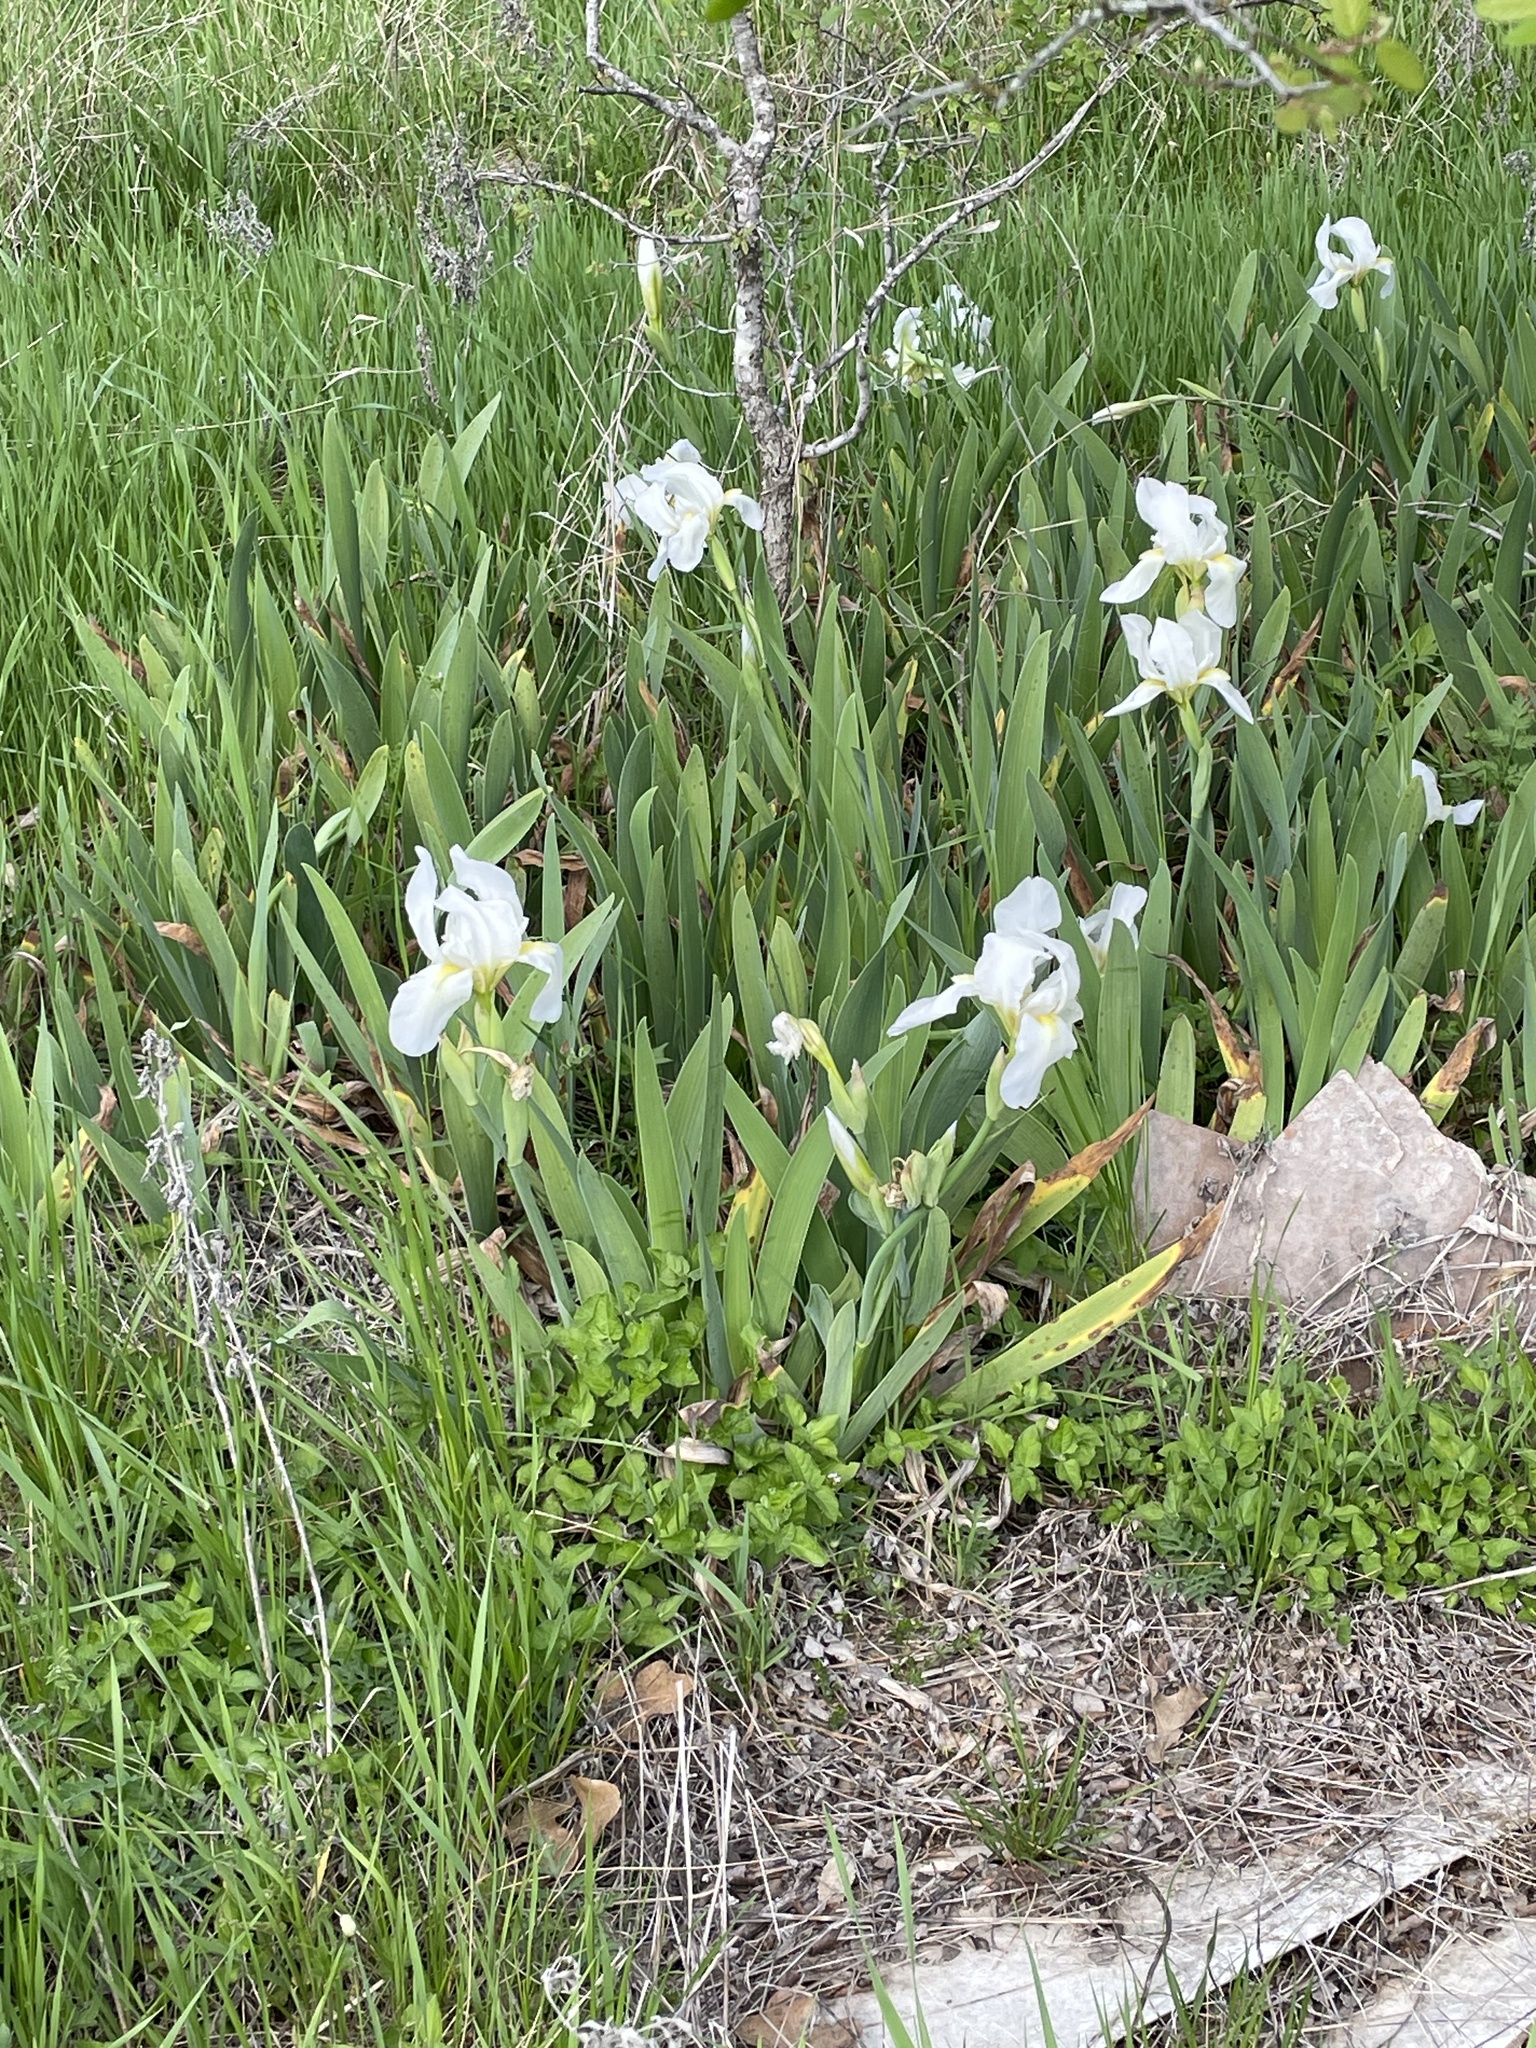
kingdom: Plantae
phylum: Tracheophyta
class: Liliopsida
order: Asparagales
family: Iridaceae
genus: Iris
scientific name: Iris florentina
